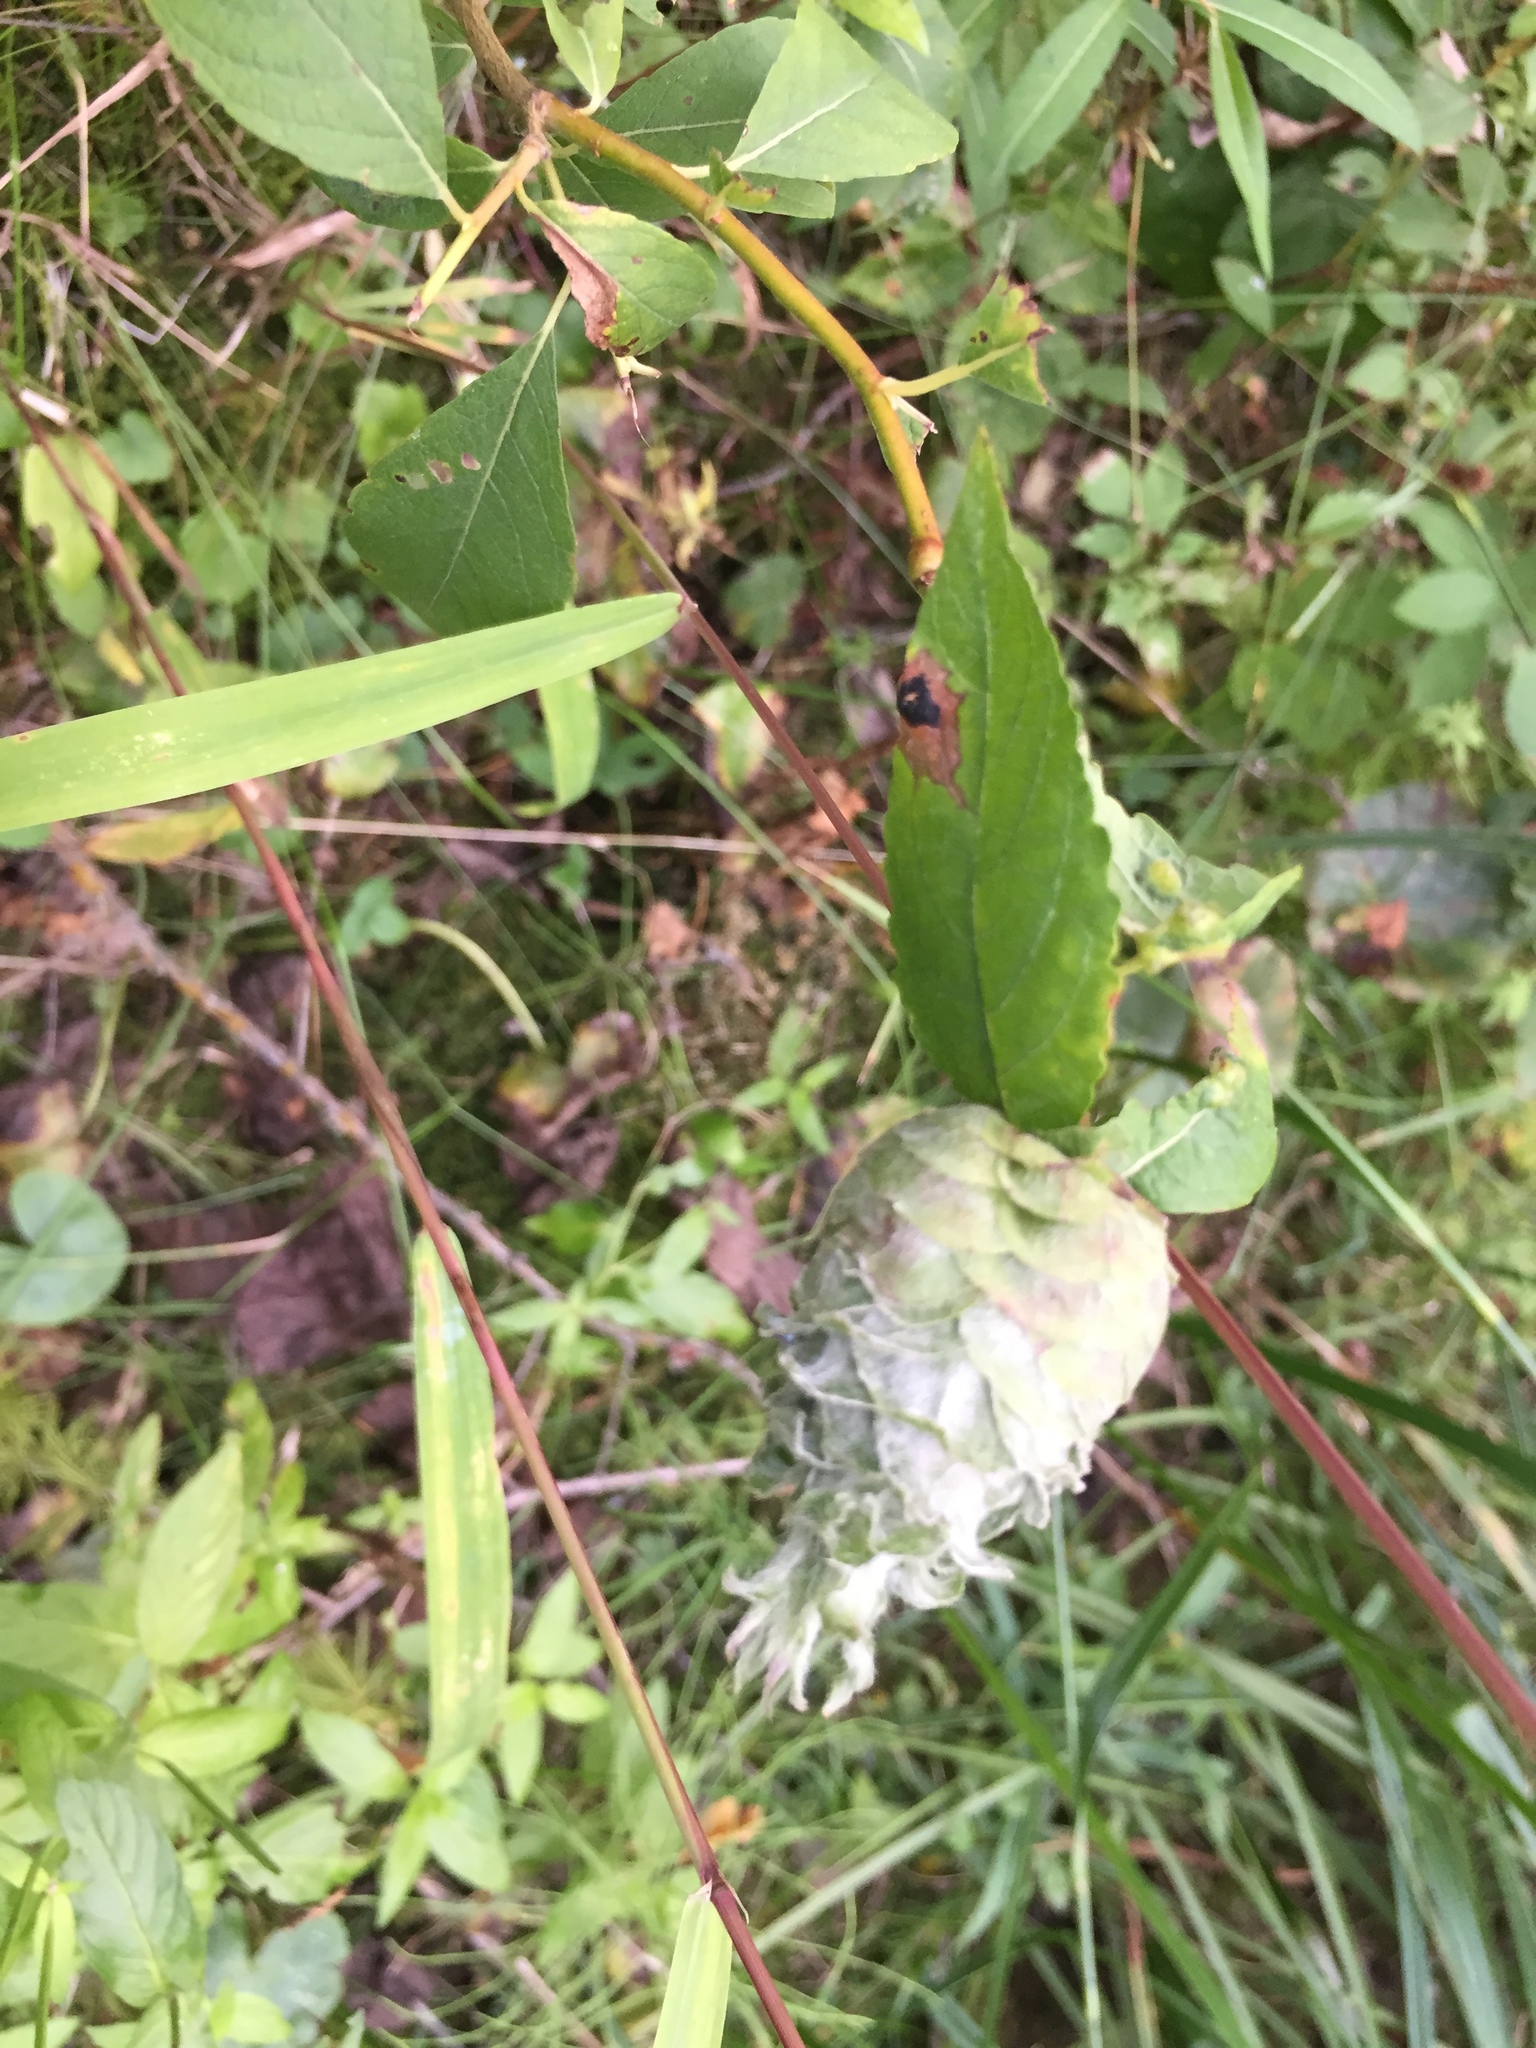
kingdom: Animalia
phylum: Arthropoda
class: Insecta
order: Diptera
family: Cecidomyiidae
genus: Rabdophaga
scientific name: Rabdophaga strobiloides
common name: Willow pinecone gall midge
